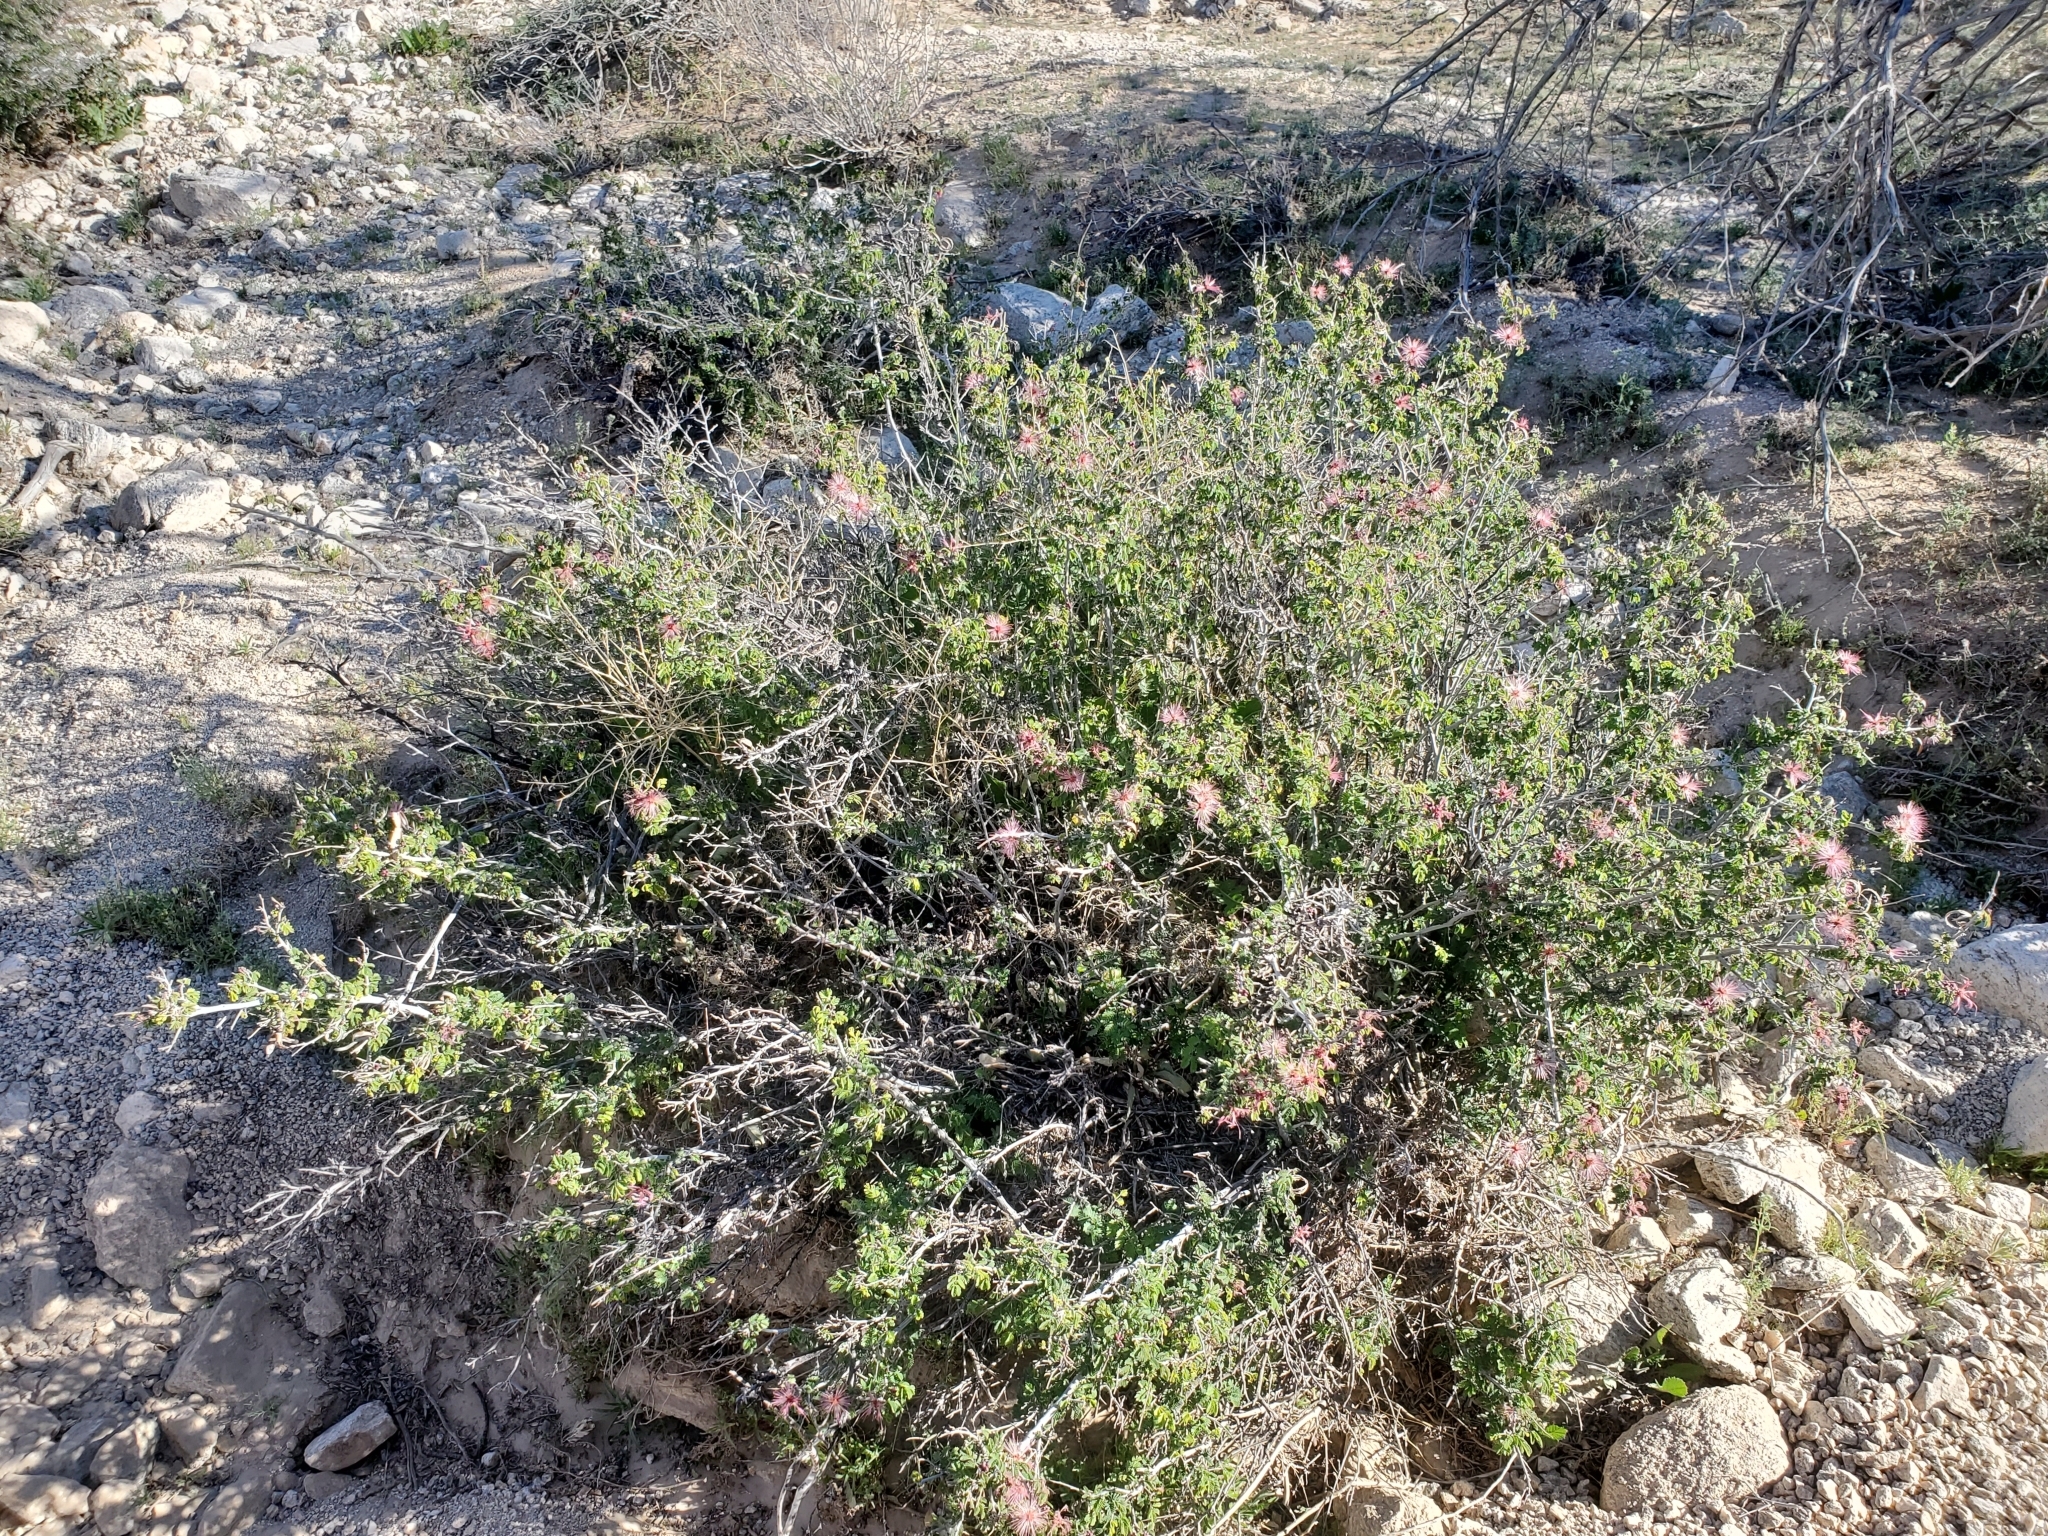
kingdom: Plantae
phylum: Tracheophyta
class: Magnoliopsida
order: Fabales
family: Fabaceae
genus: Calliandra
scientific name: Calliandra eriophylla
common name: Fairy-duster
